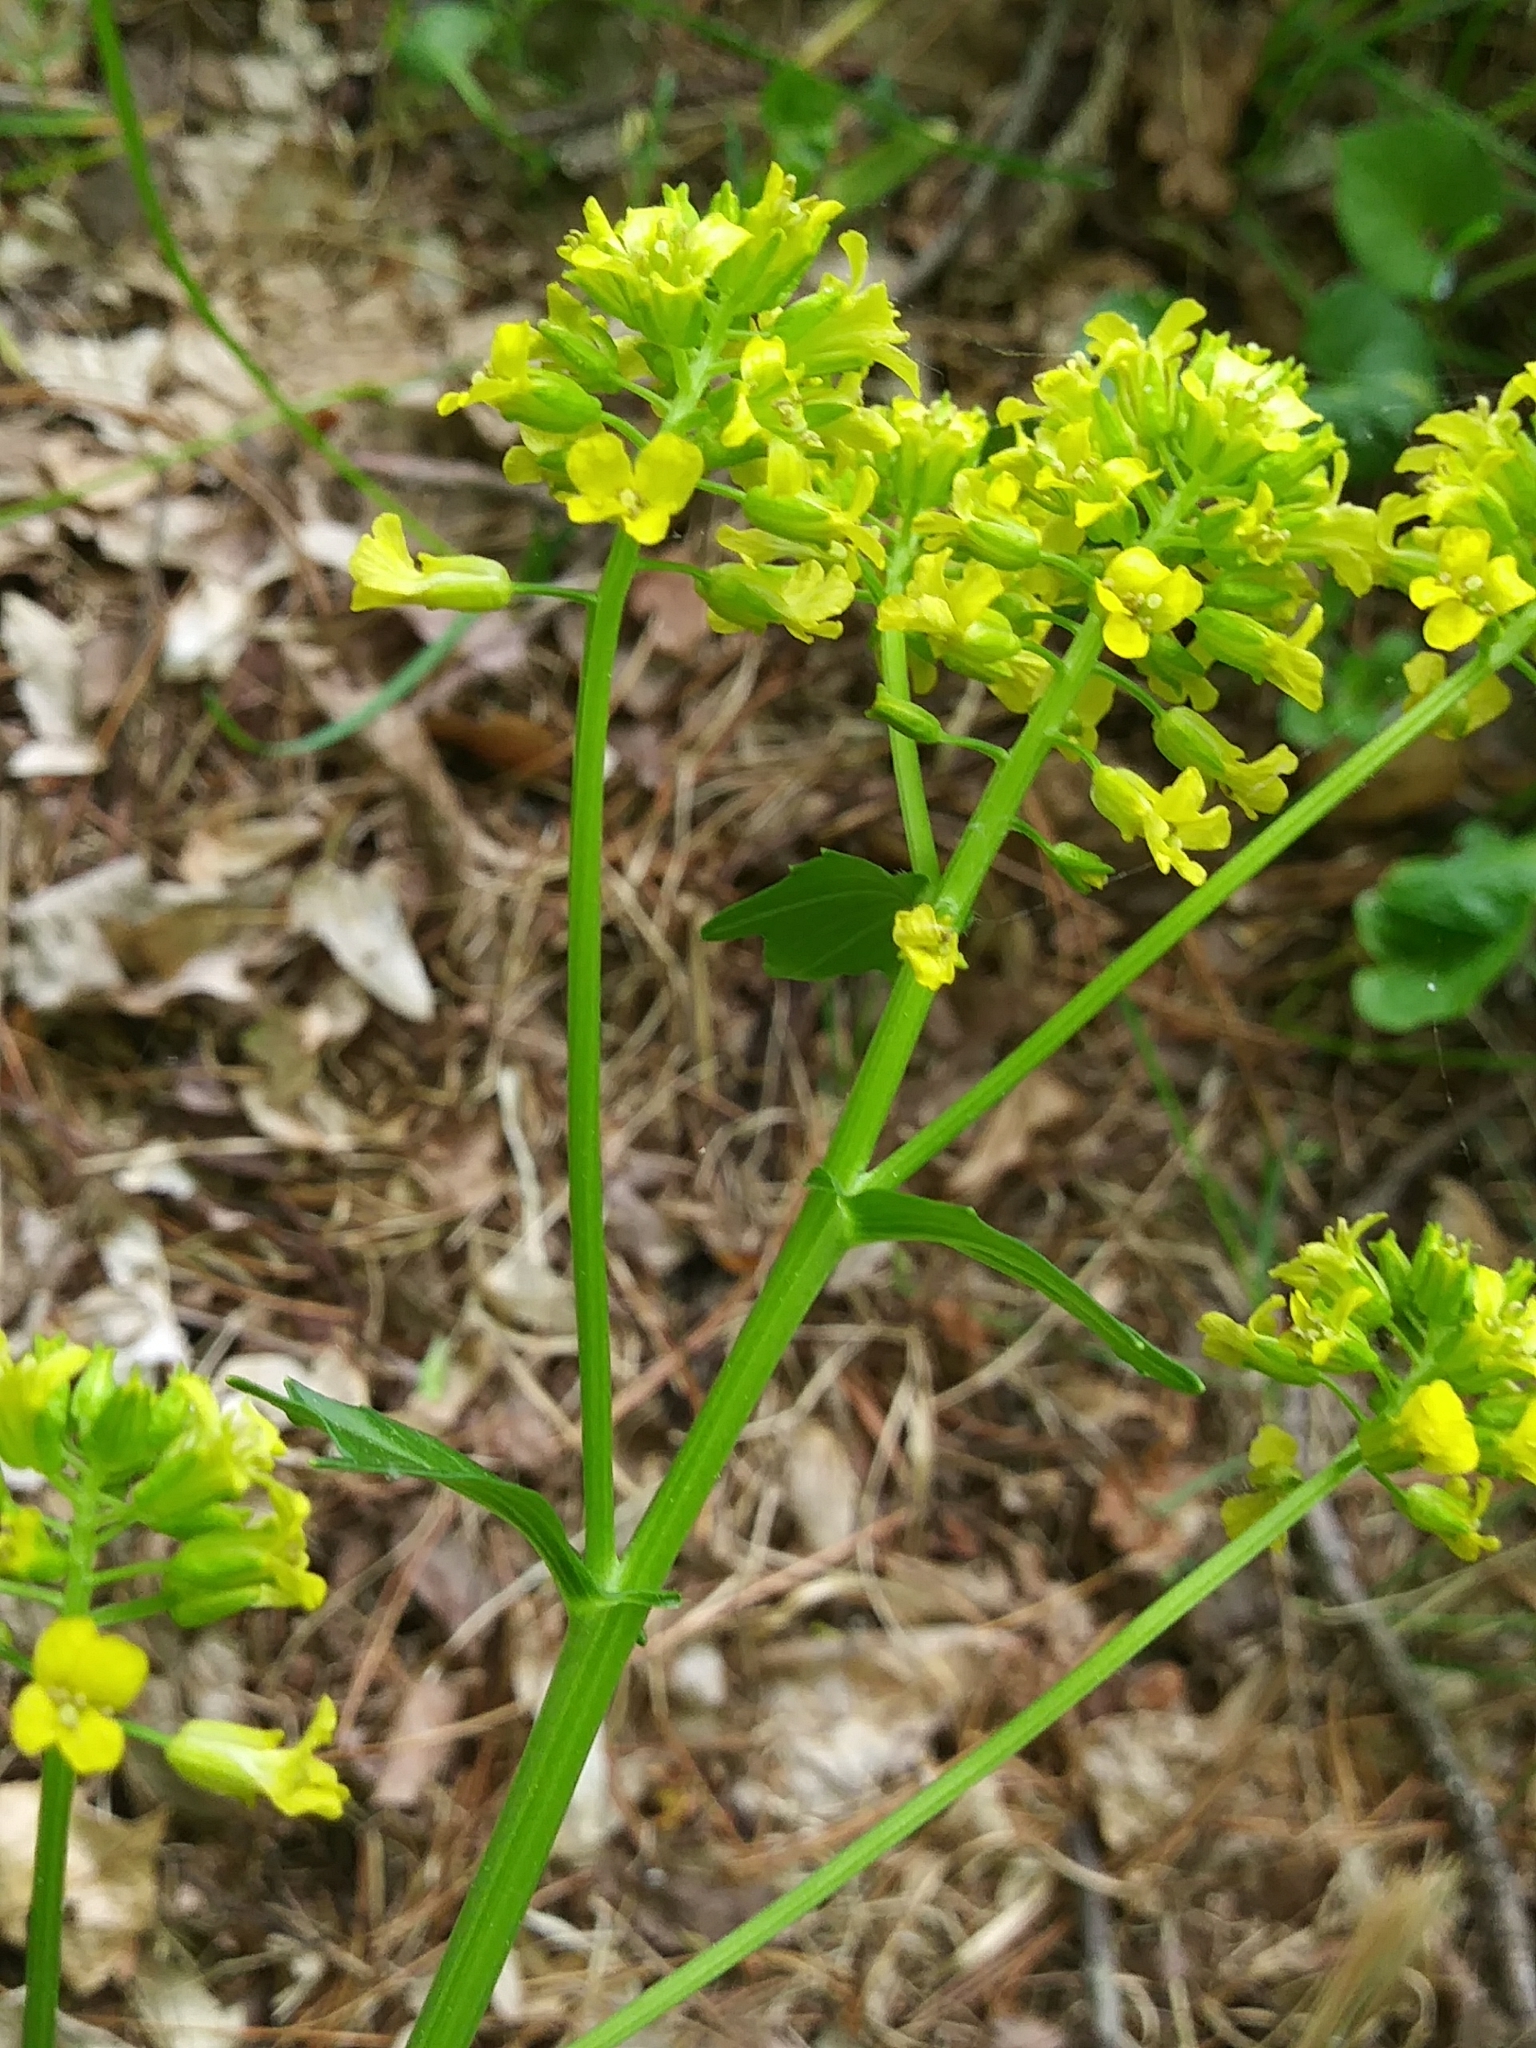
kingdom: Plantae
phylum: Tracheophyta
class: Magnoliopsida
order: Brassicales
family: Brassicaceae
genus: Barbarea
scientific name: Barbarea vulgaris
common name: Cressy-greens
